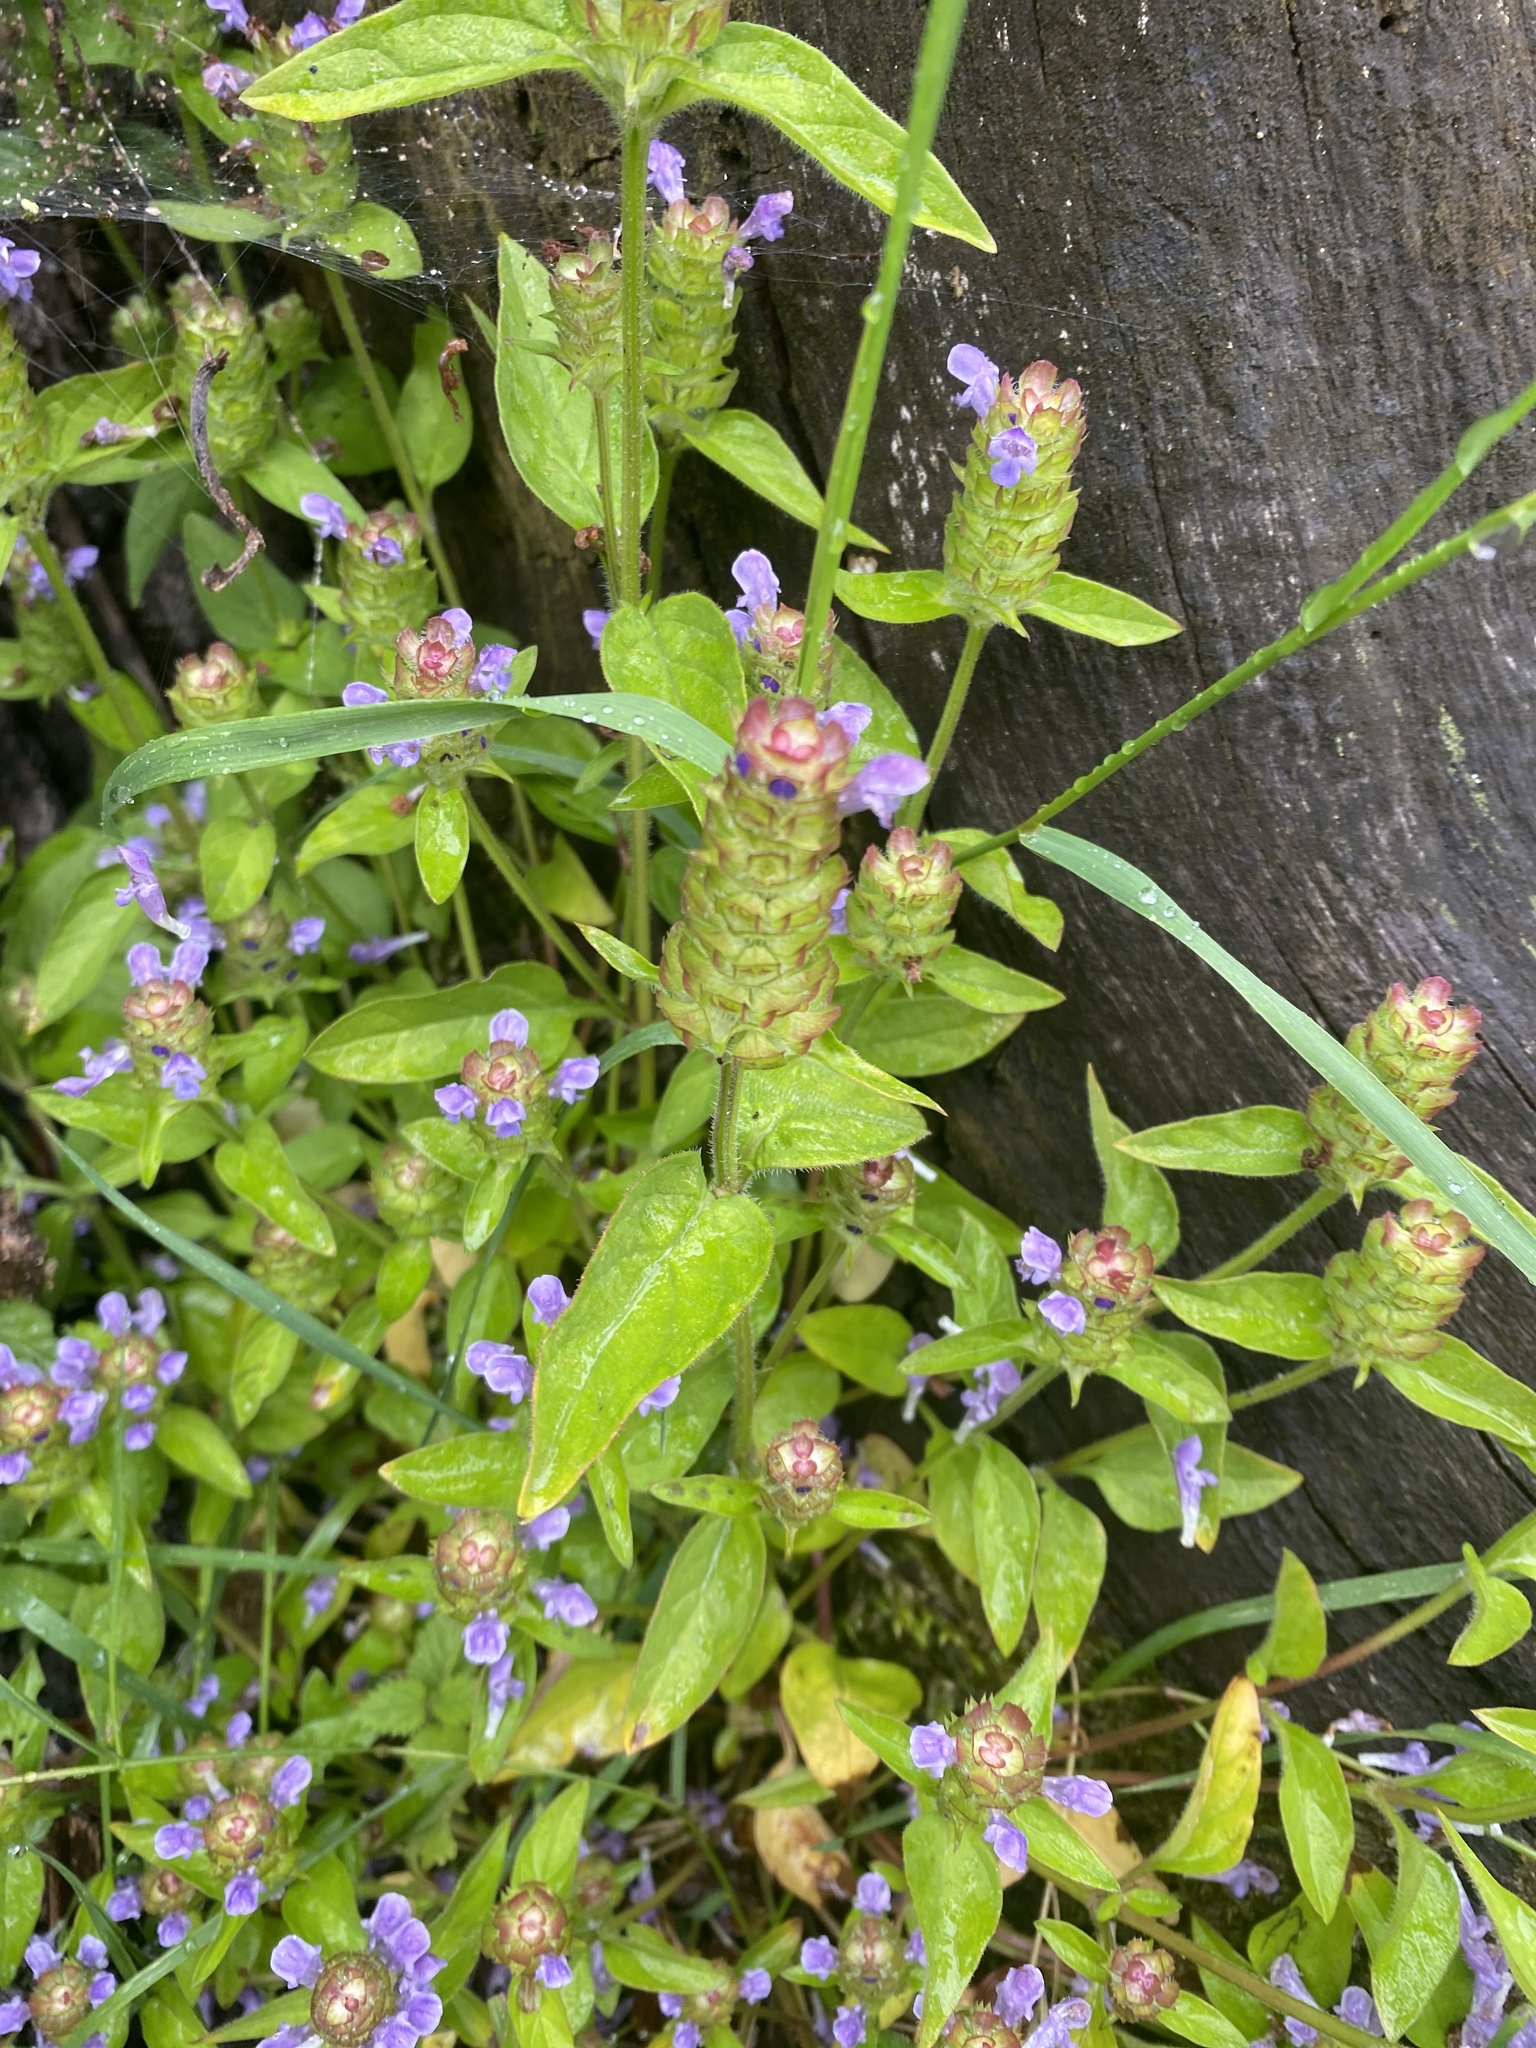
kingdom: Plantae
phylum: Tracheophyta
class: Magnoliopsida
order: Lamiales
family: Lamiaceae
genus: Prunella
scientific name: Prunella vulgaris
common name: Heal-all
